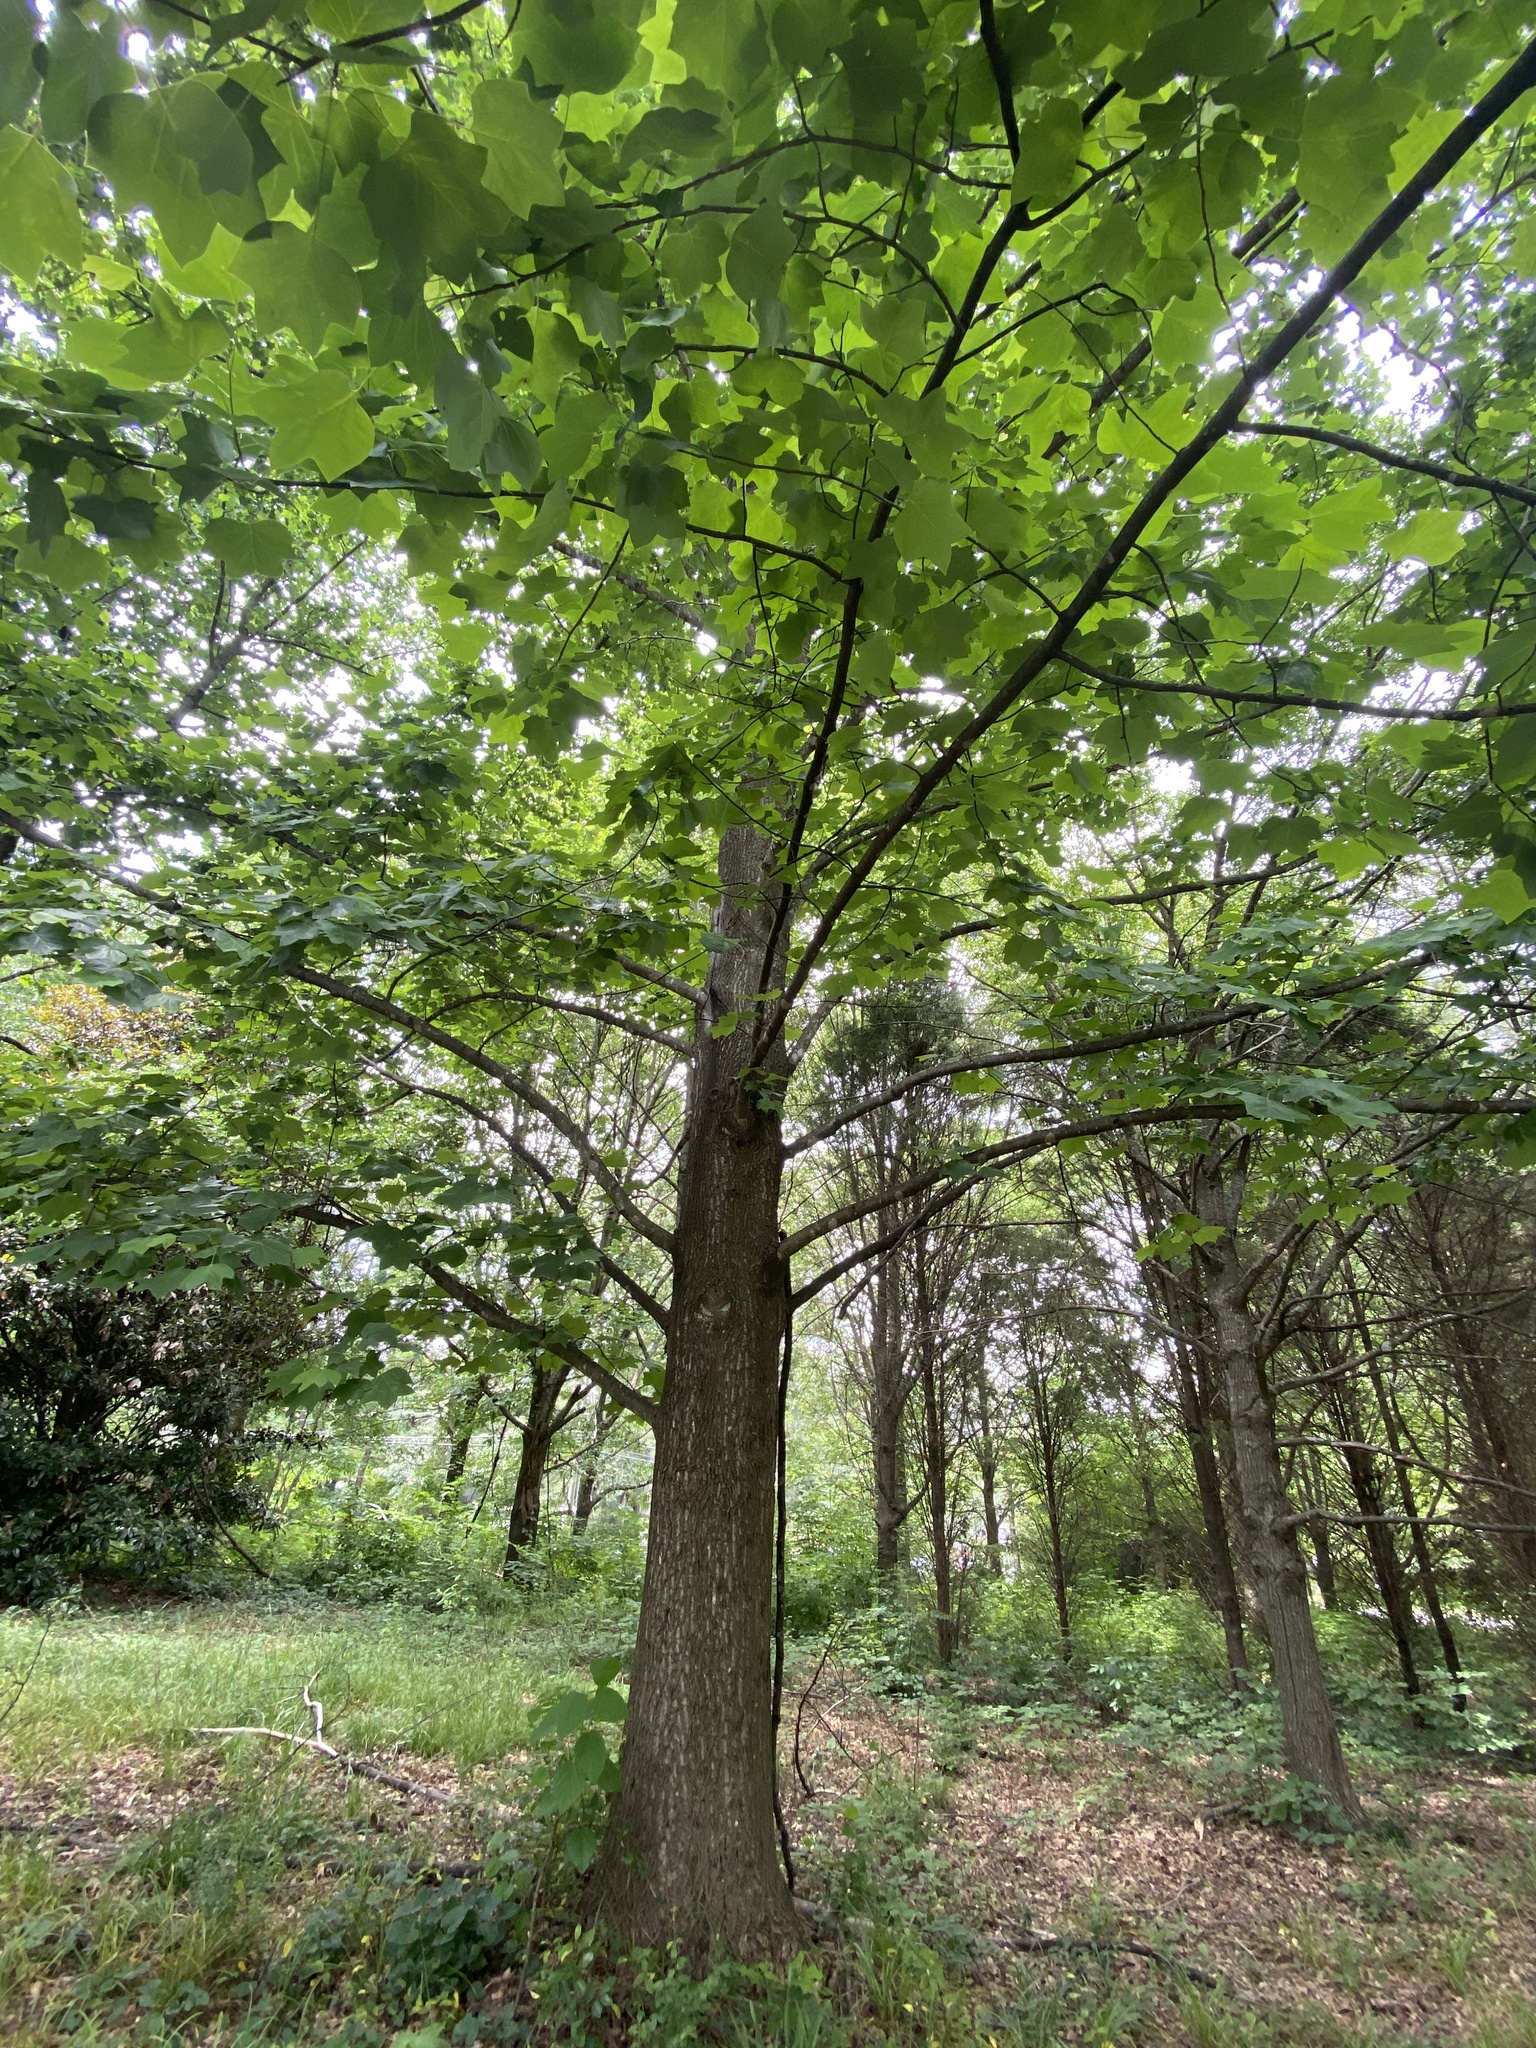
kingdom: Plantae
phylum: Tracheophyta
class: Magnoliopsida
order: Magnoliales
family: Magnoliaceae
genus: Liriodendron
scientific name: Liriodendron tulipifera
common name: Tulip tree
